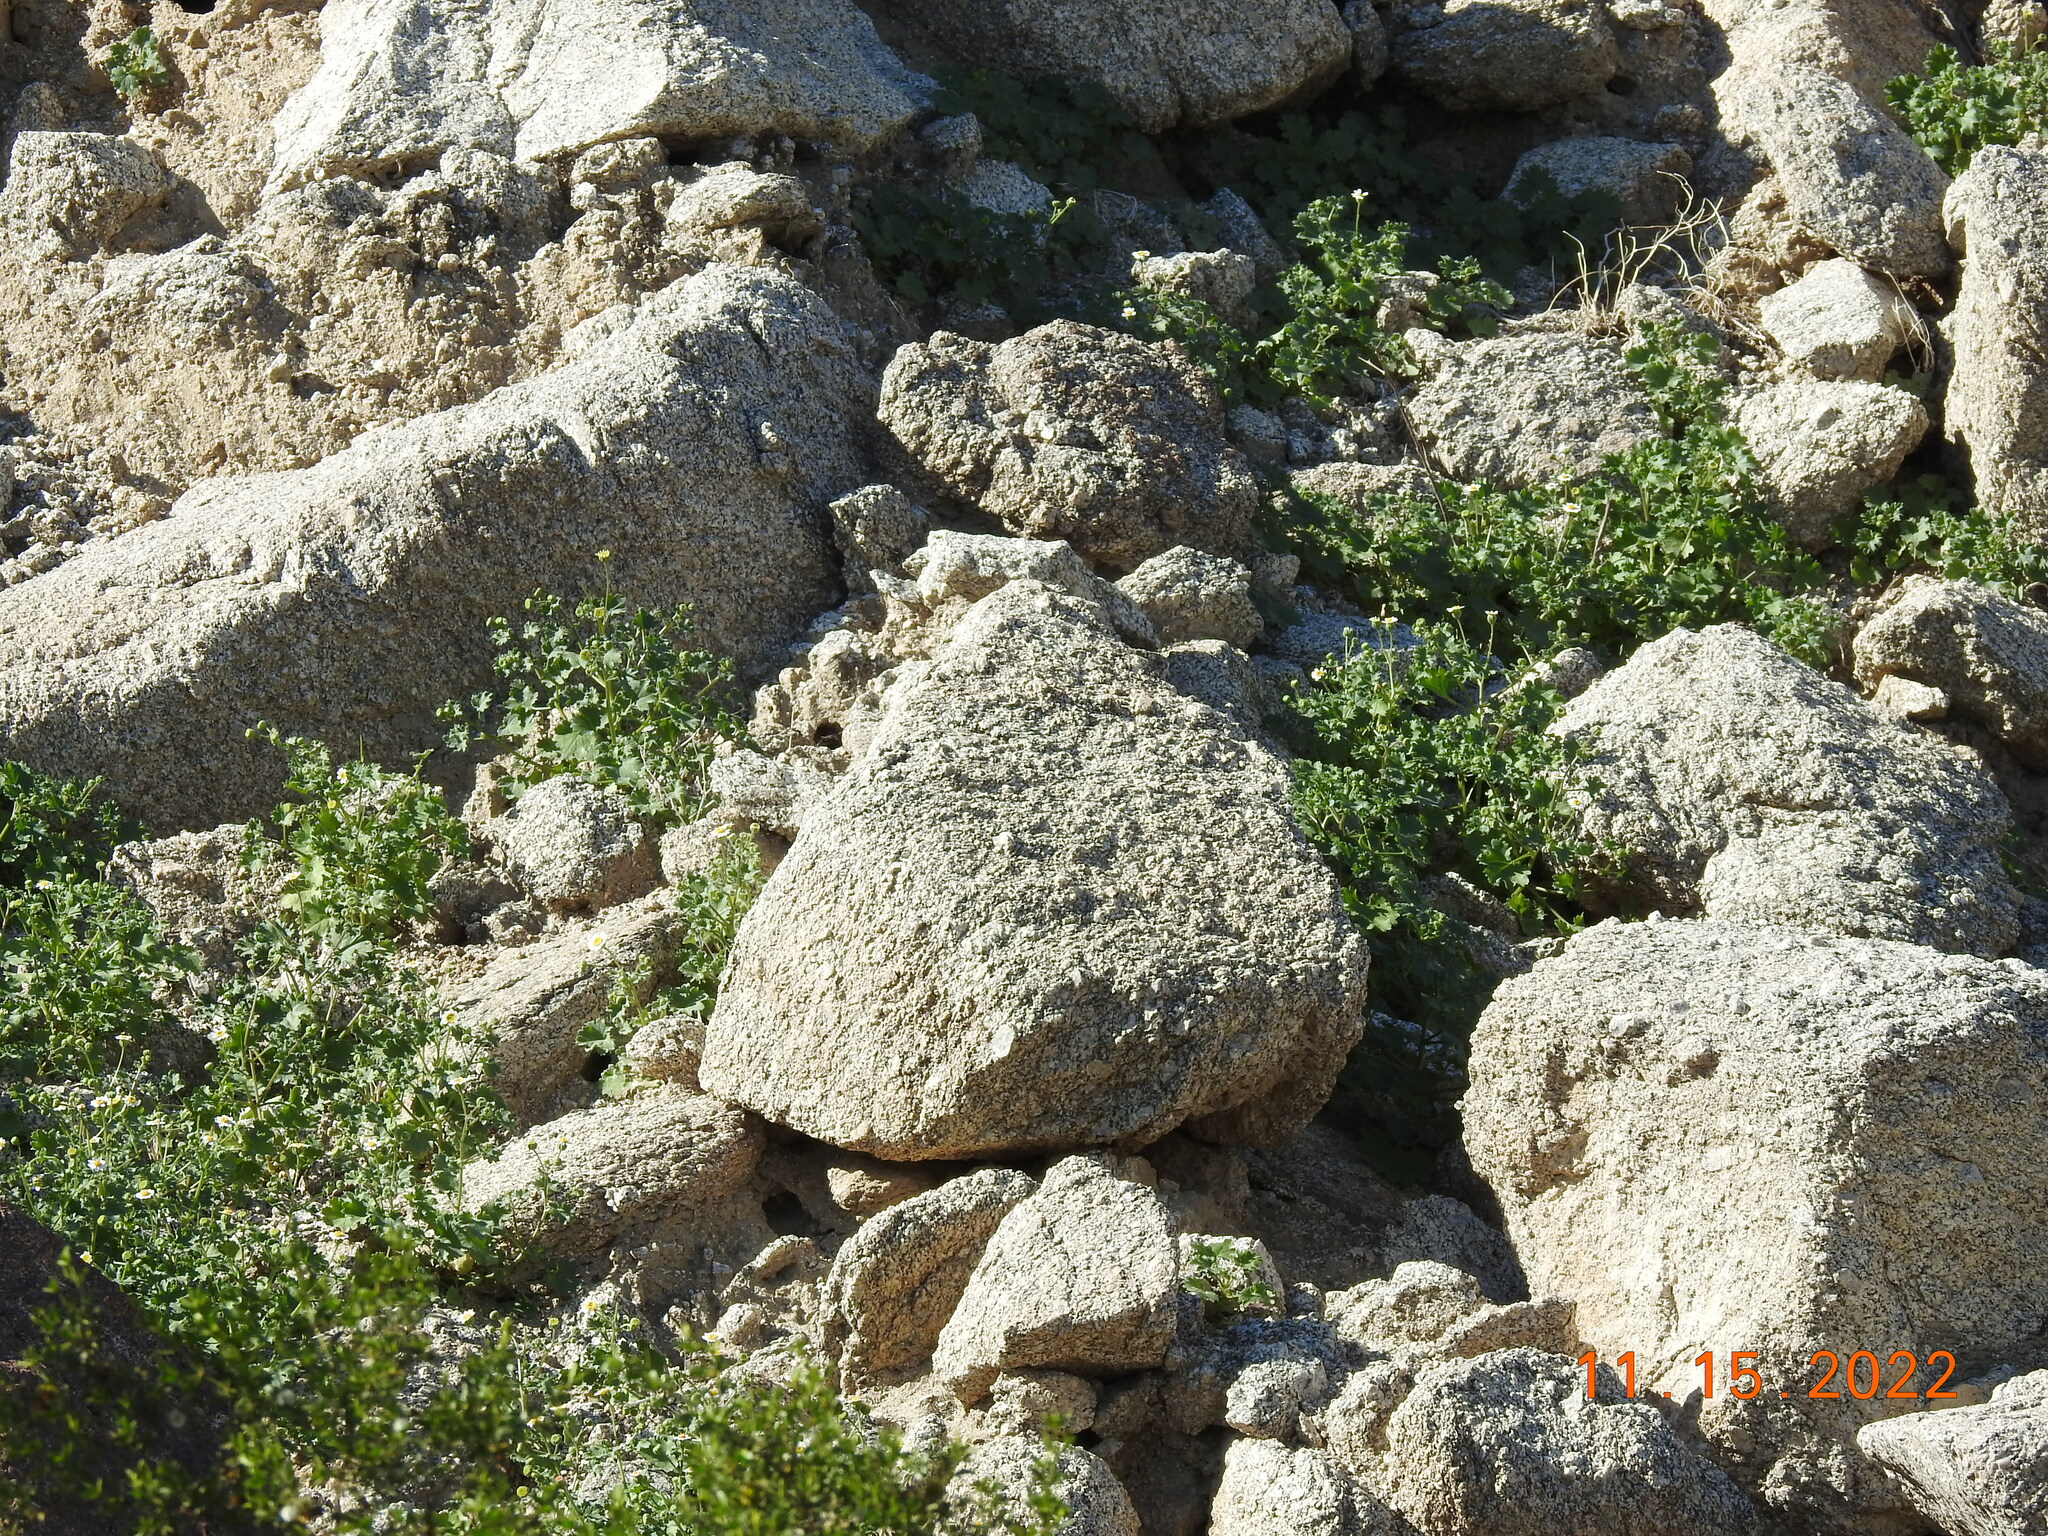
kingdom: Plantae
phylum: Tracheophyta
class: Magnoliopsida
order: Asterales
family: Asteraceae
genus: Laphamia
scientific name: Laphamia emoryi
